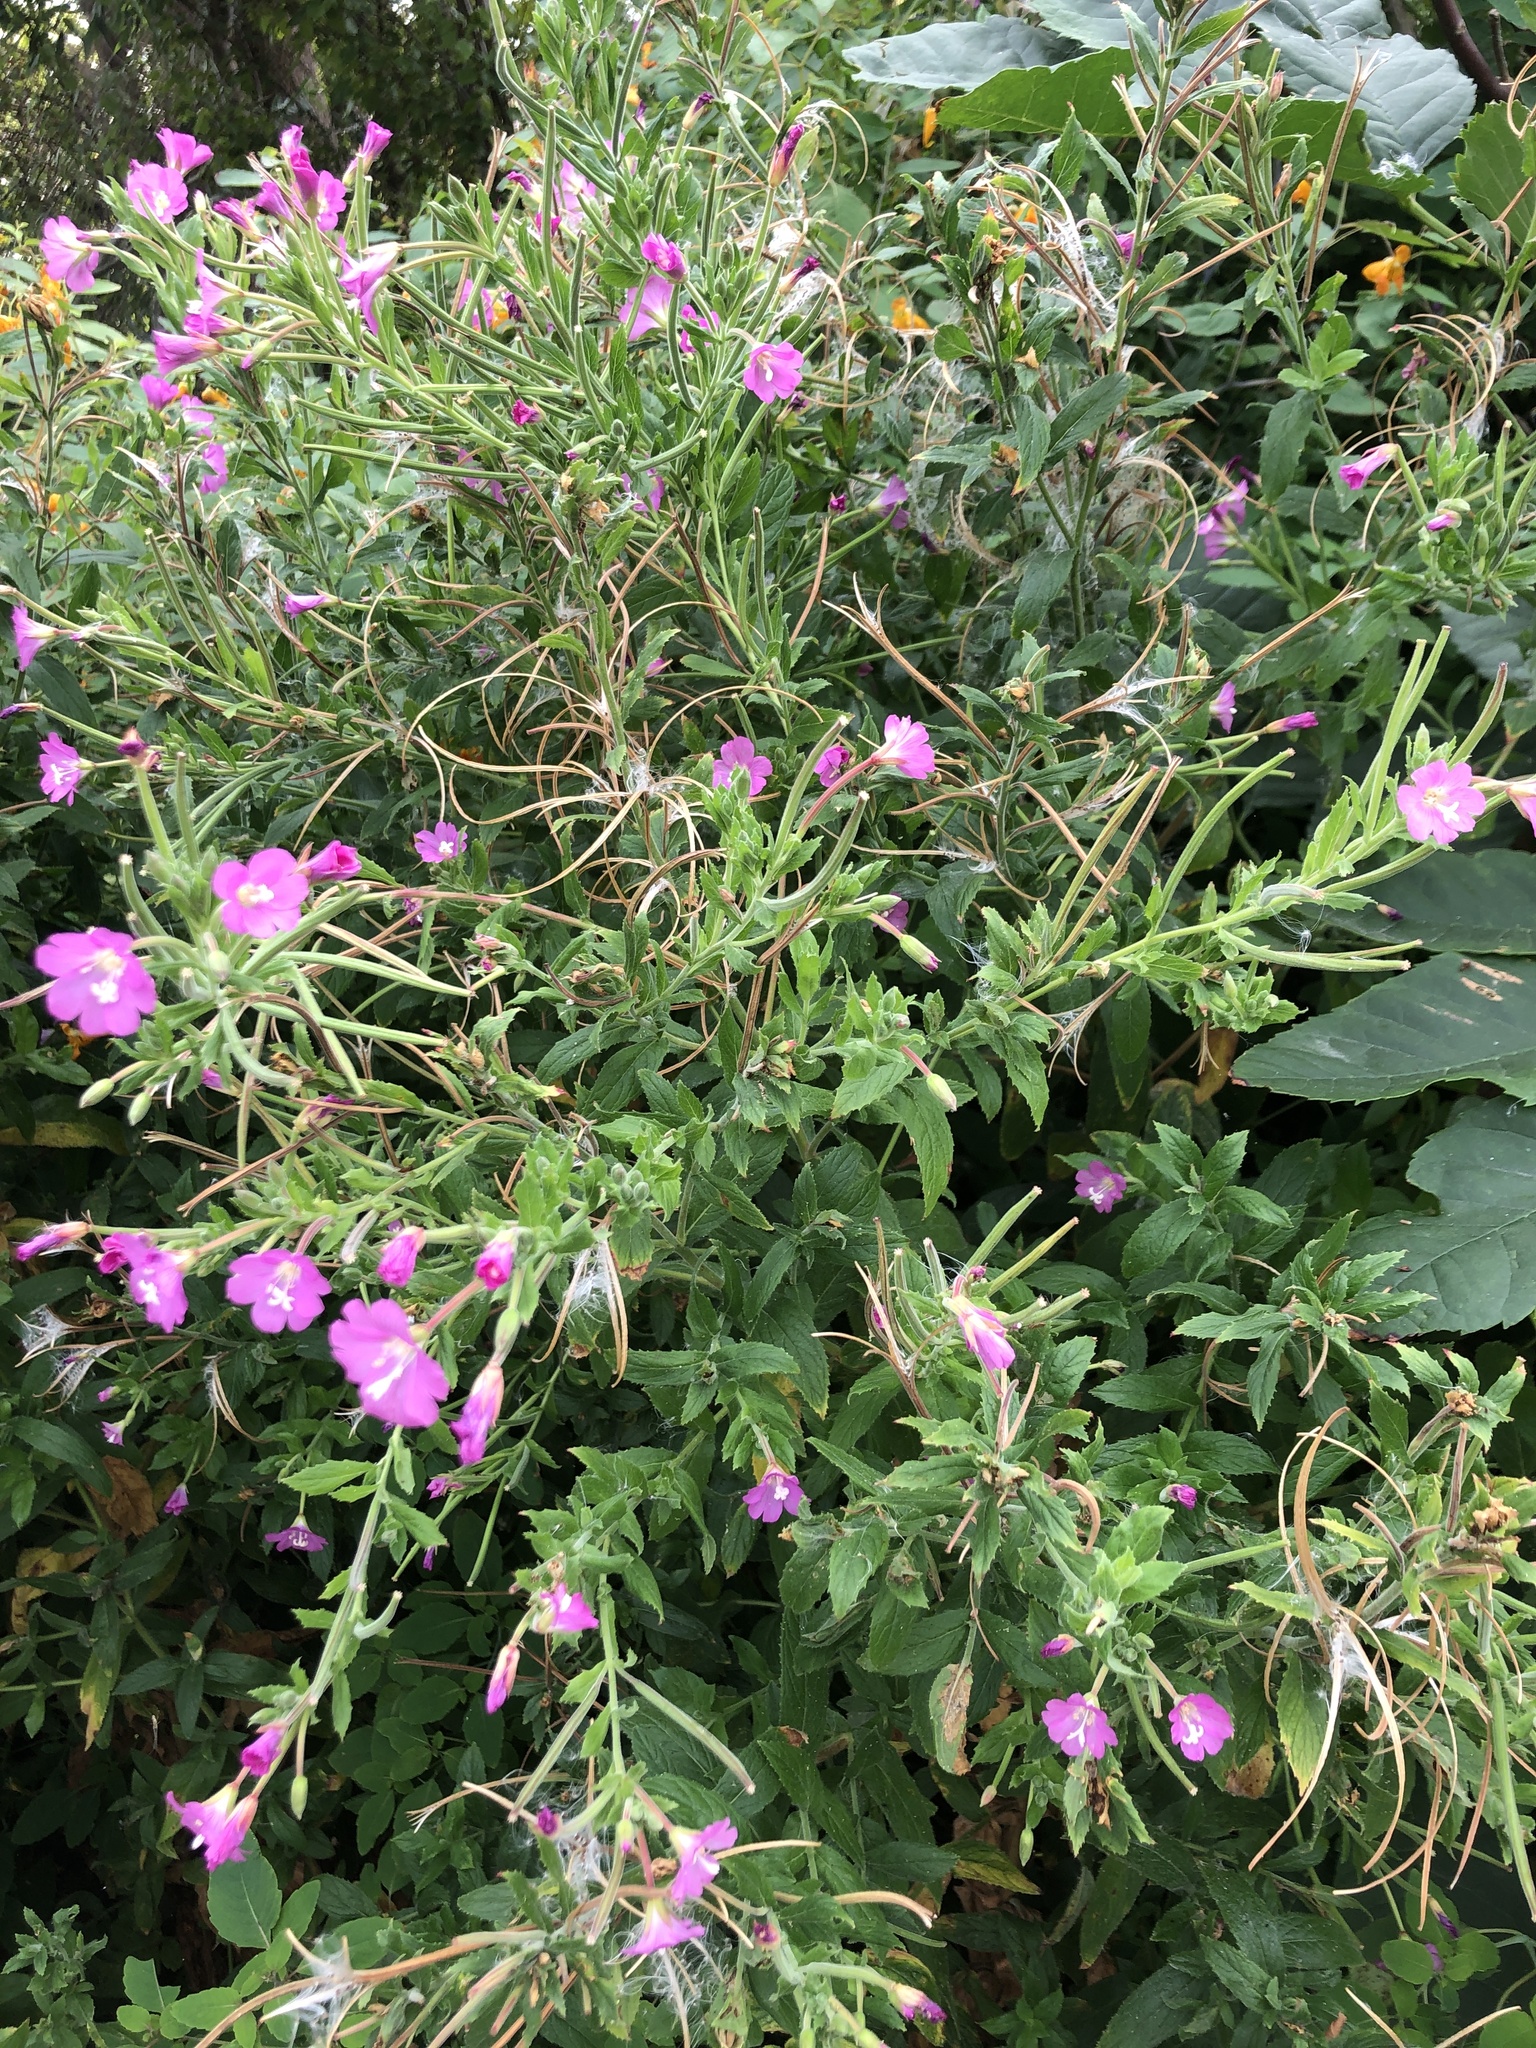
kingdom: Plantae
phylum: Tracheophyta
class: Magnoliopsida
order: Myrtales
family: Onagraceae
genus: Epilobium
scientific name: Epilobium hirsutum
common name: Great willowherb
